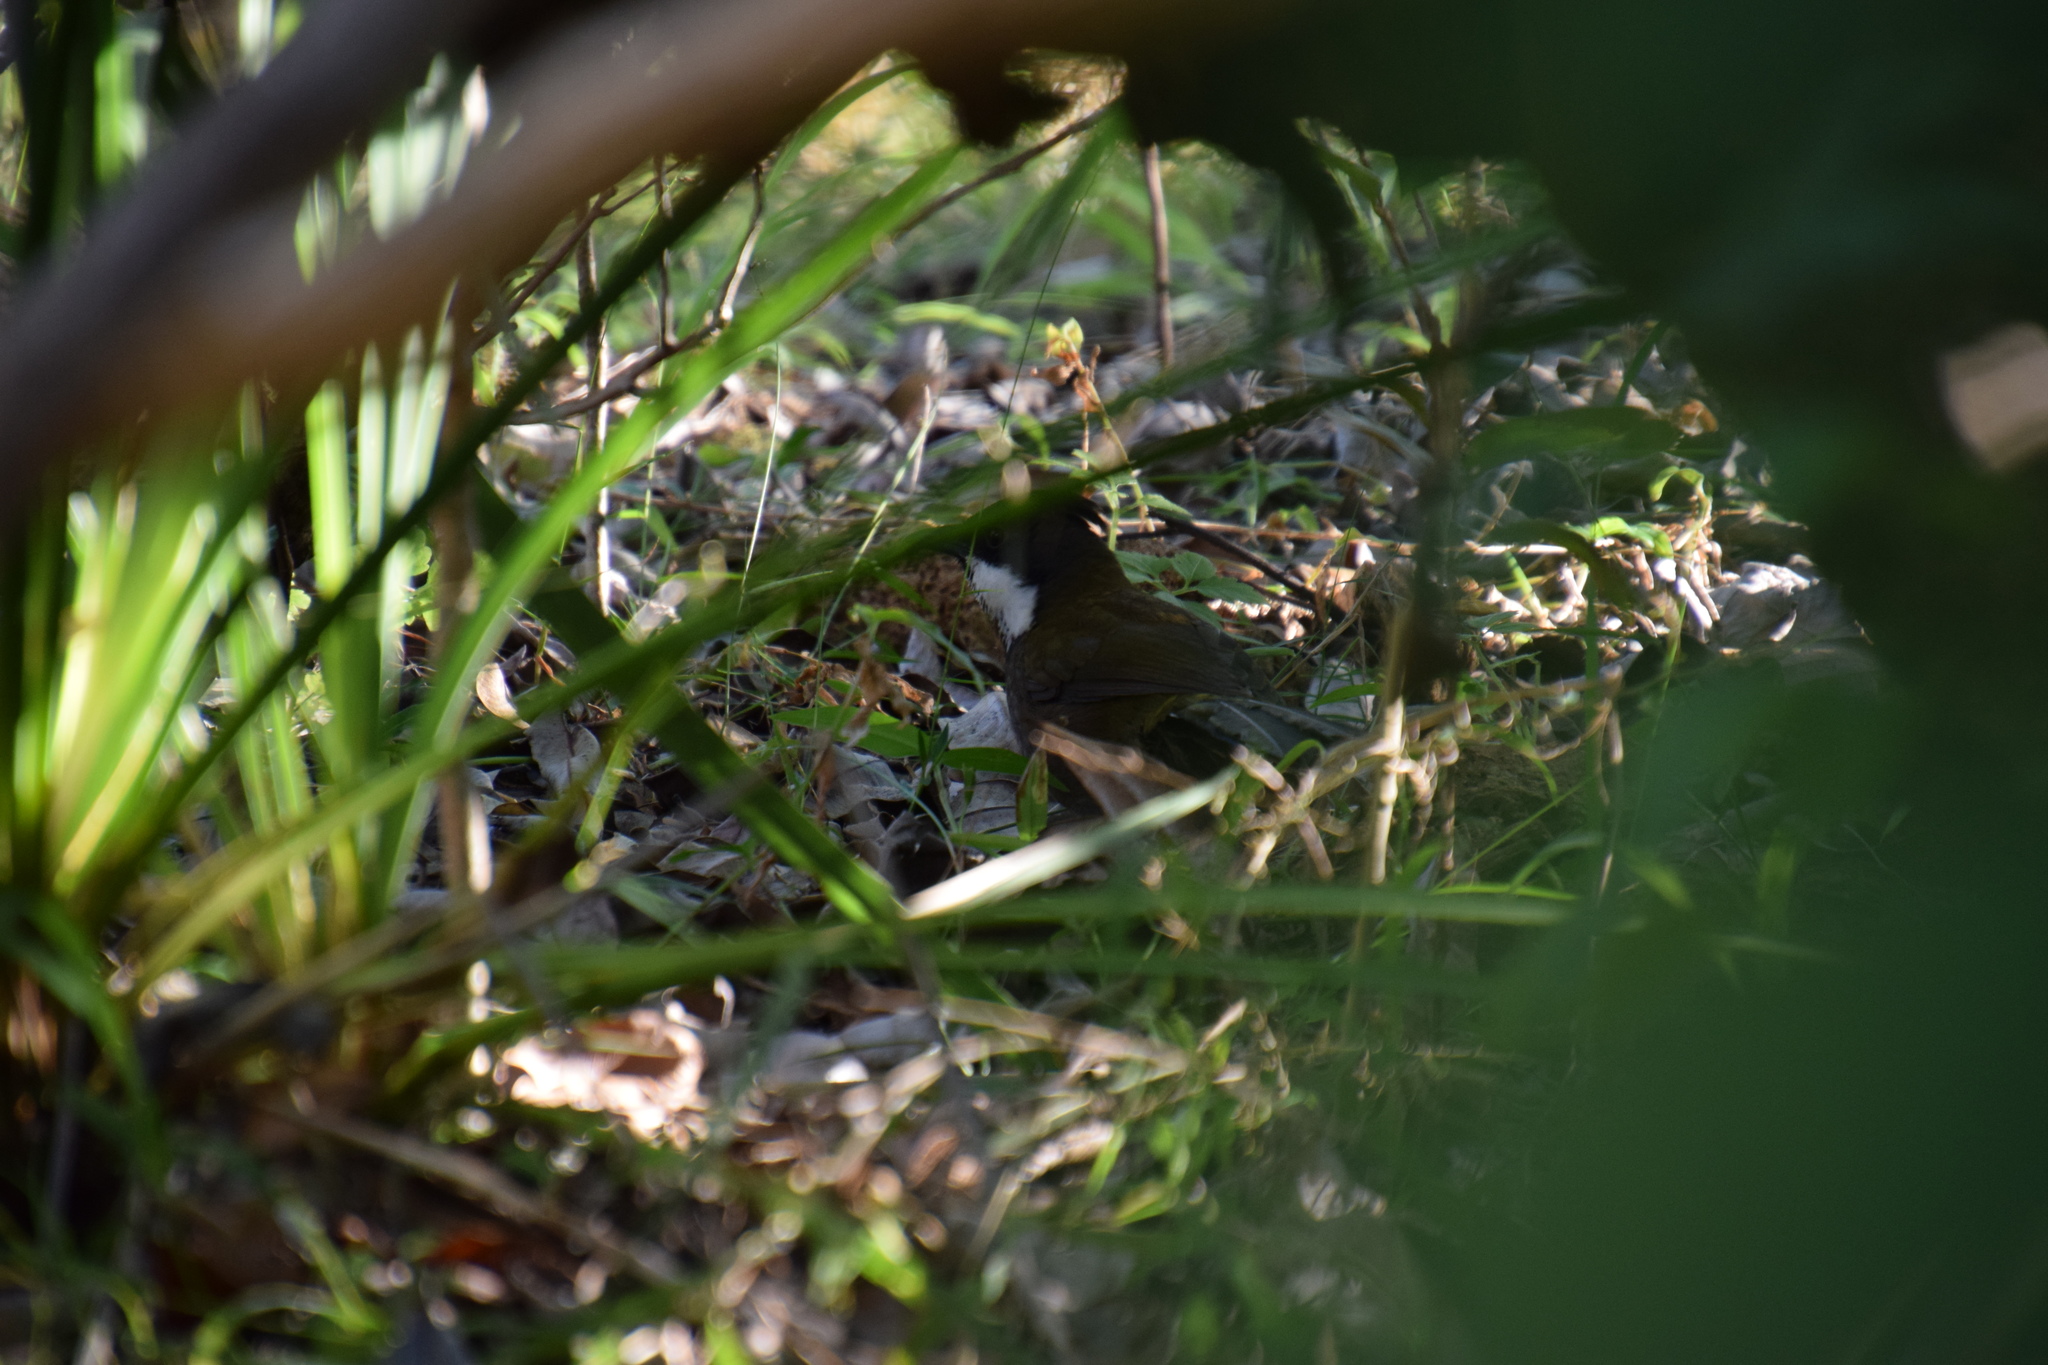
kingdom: Animalia
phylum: Chordata
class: Aves
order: Passeriformes
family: Psophodidae
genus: Psophodes
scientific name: Psophodes olivaceus
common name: Eastern whipbird
